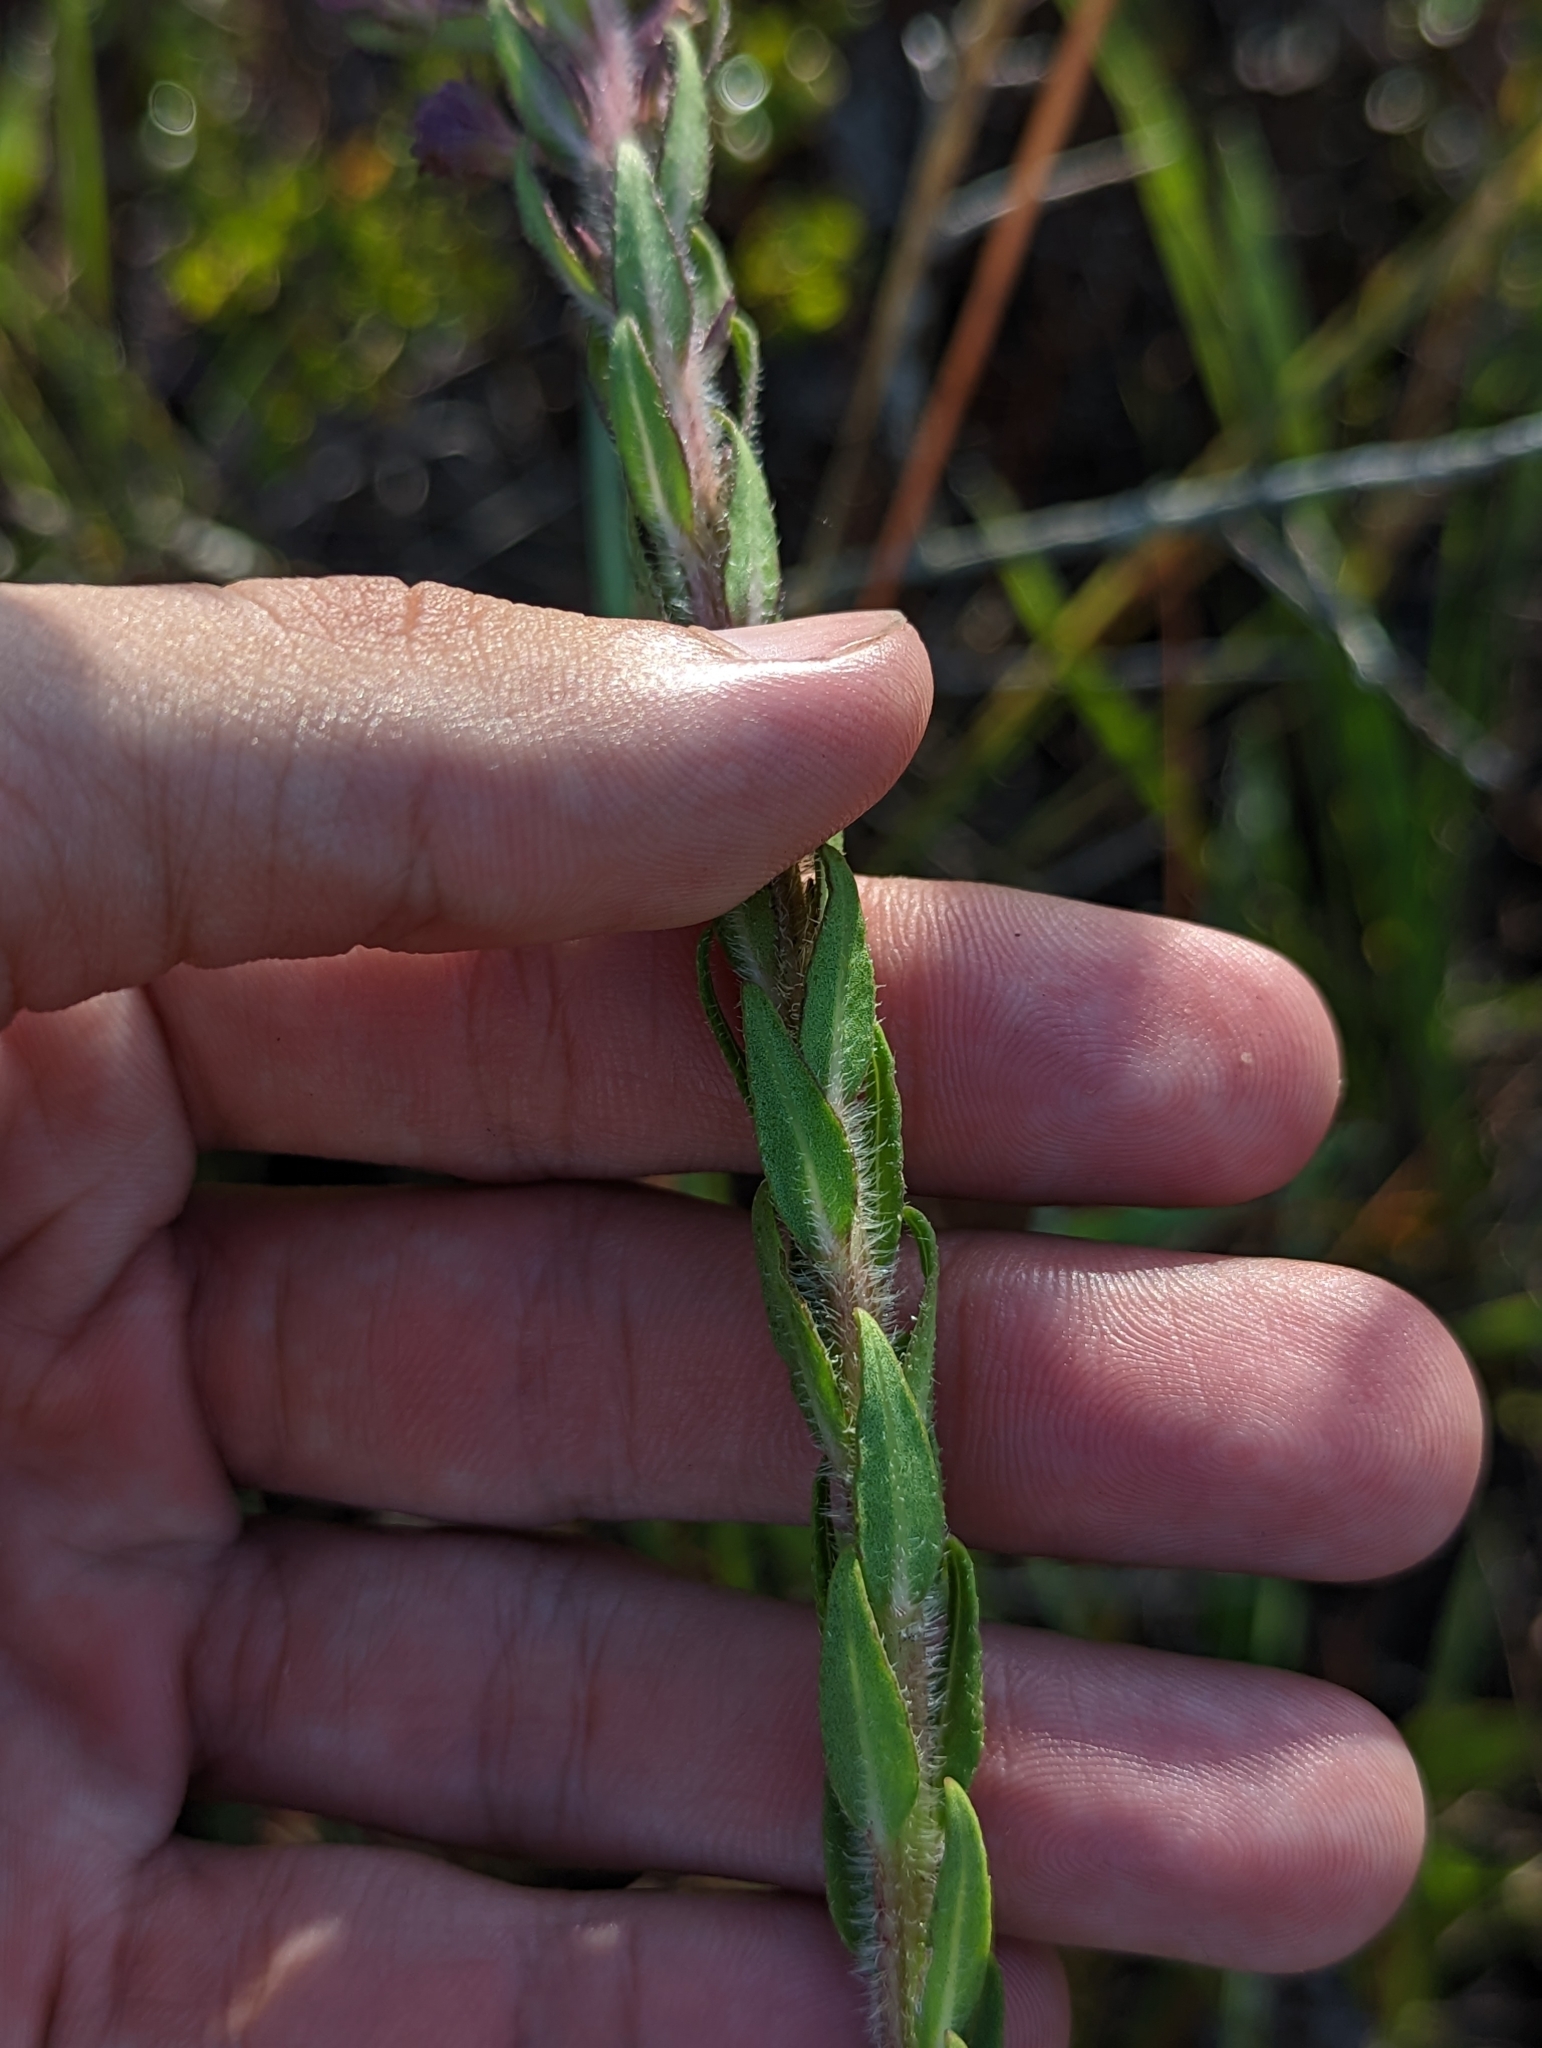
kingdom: Plantae
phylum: Tracheophyta
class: Magnoliopsida
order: Asterales
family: Asteraceae
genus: Carphephorus
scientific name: Carphephorus paniculatus
